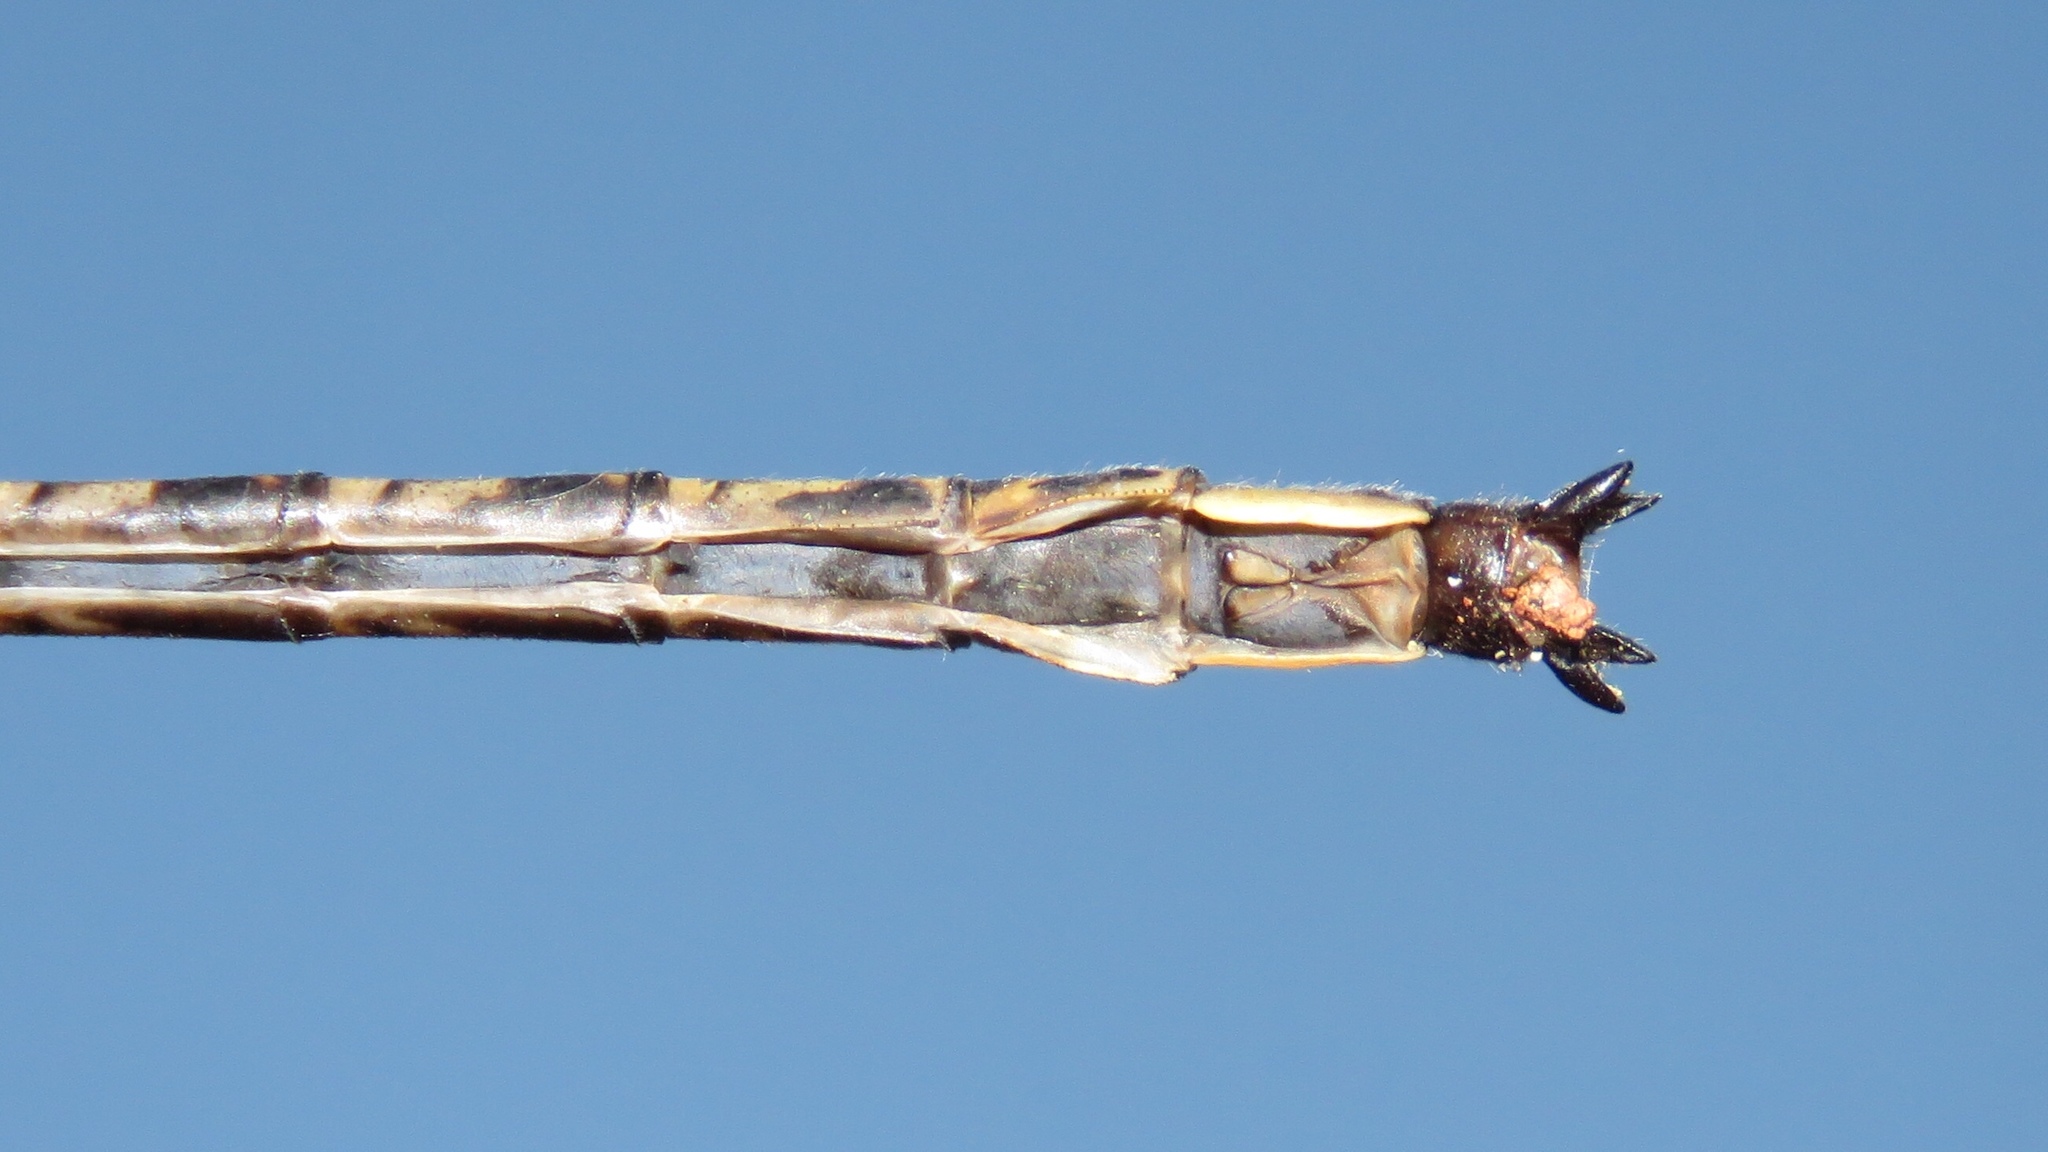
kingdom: Animalia
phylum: Arthropoda
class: Insecta
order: Odonata
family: Gomphidae
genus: Phanogomphus
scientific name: Phanogomphus spicatus
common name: Dusky clubtail
